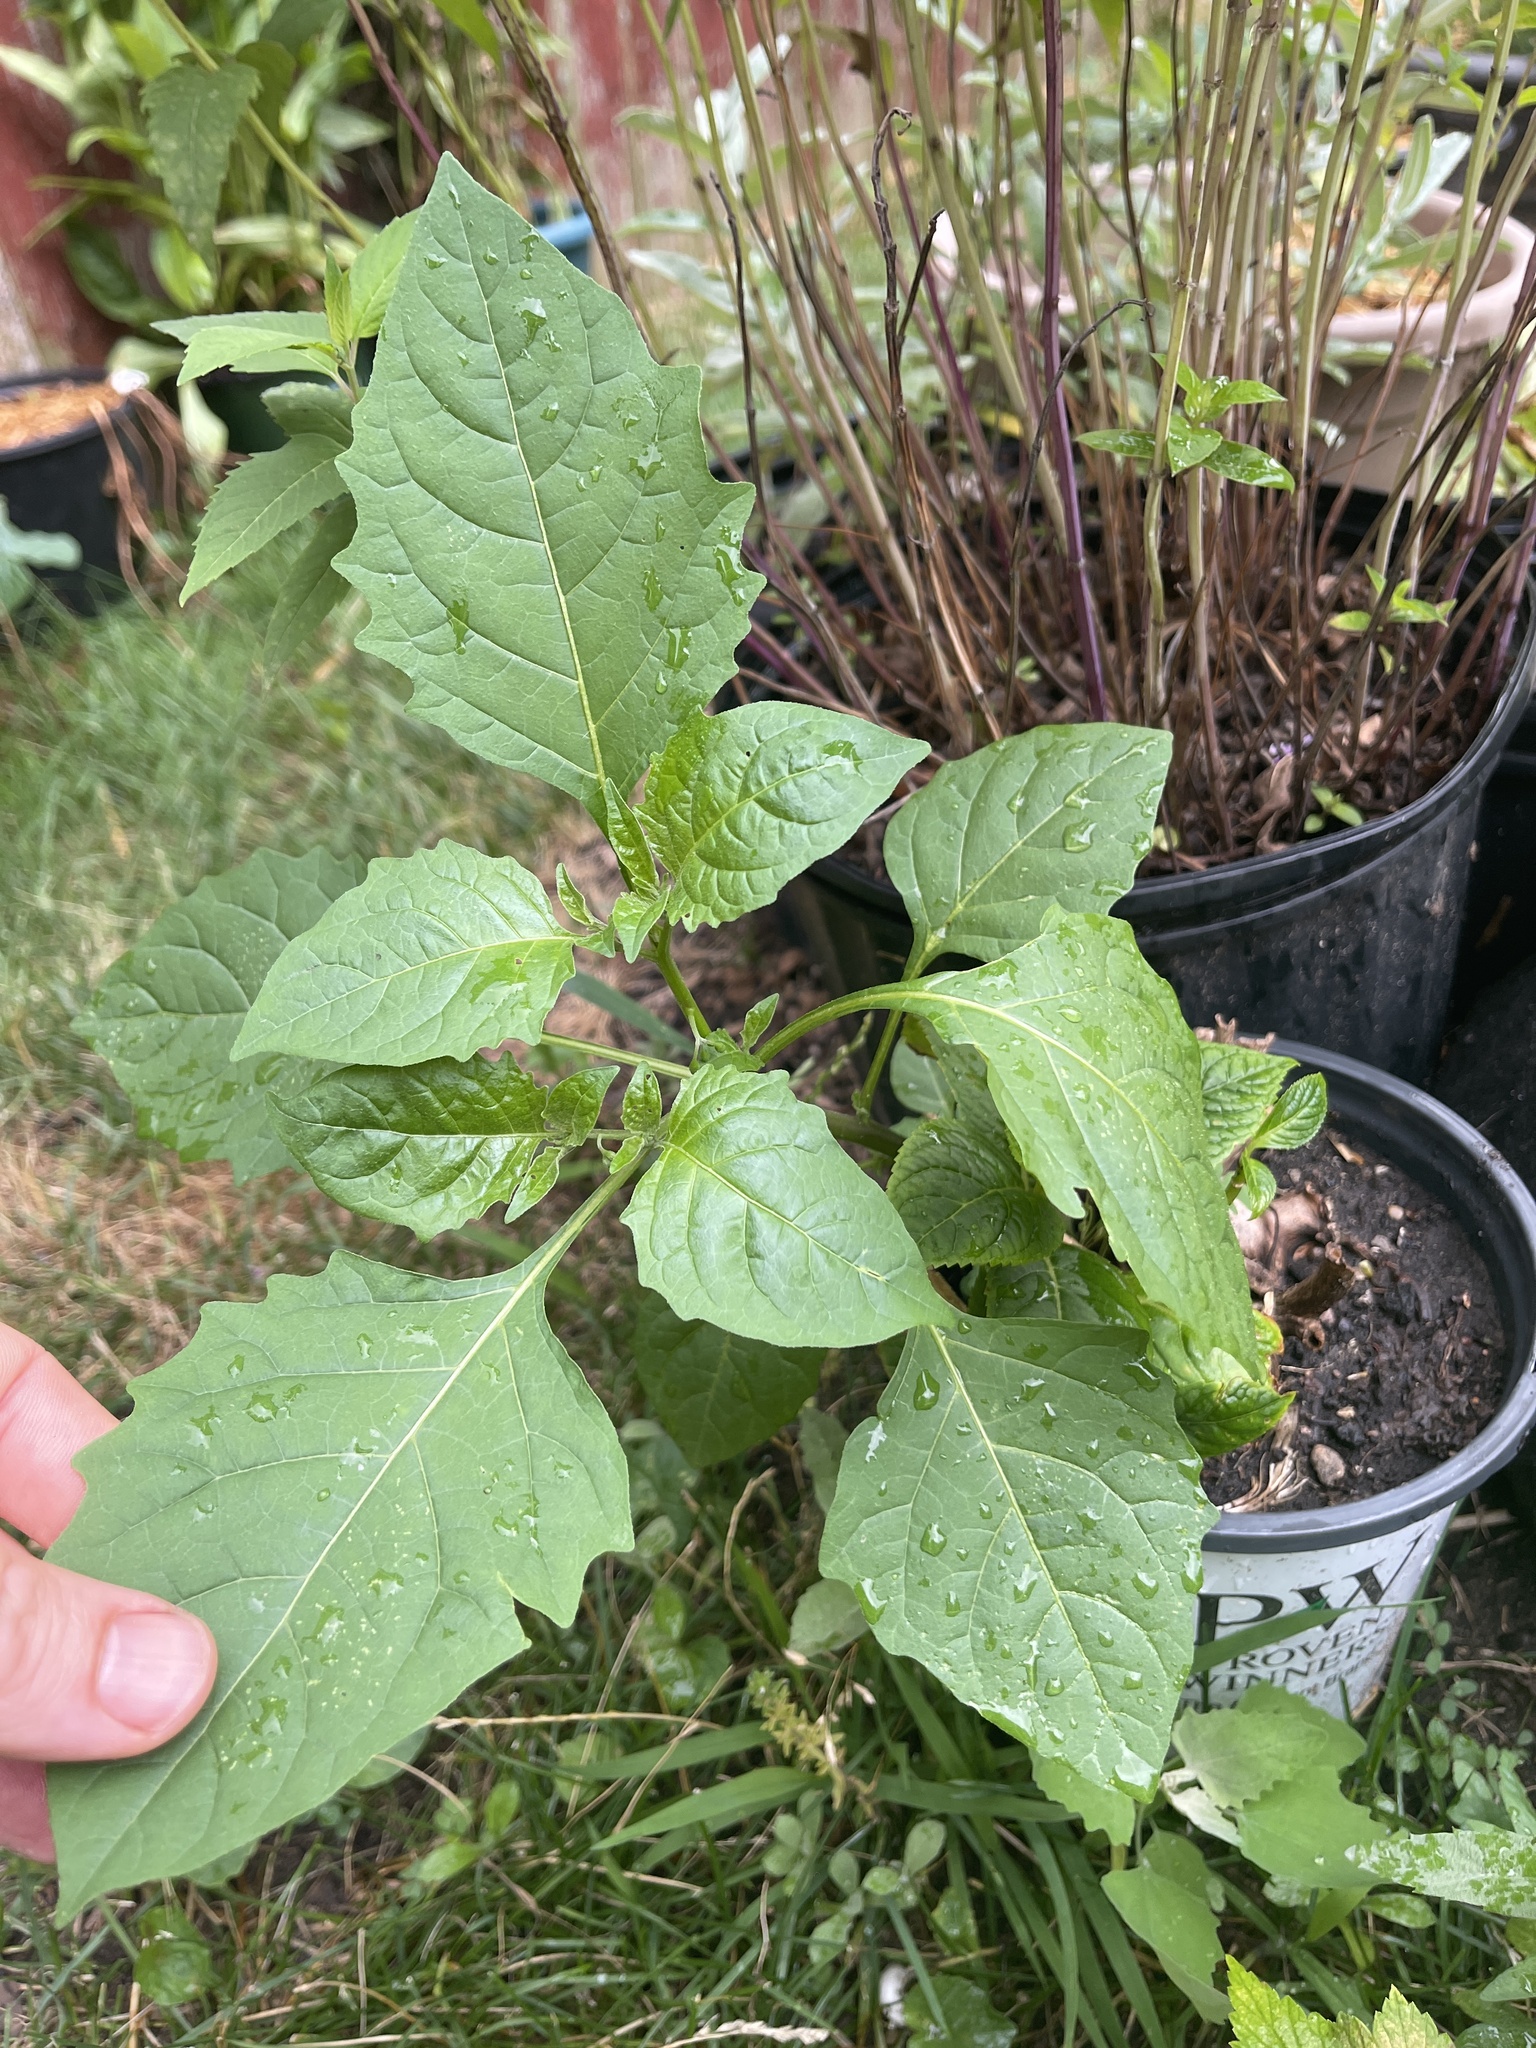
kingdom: Plantae
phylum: Tracheophyta
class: Magnoliopsida
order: Solanales
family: Solanaceae
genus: Solanum
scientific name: Solanum emulans
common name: Eastern black nightshade
